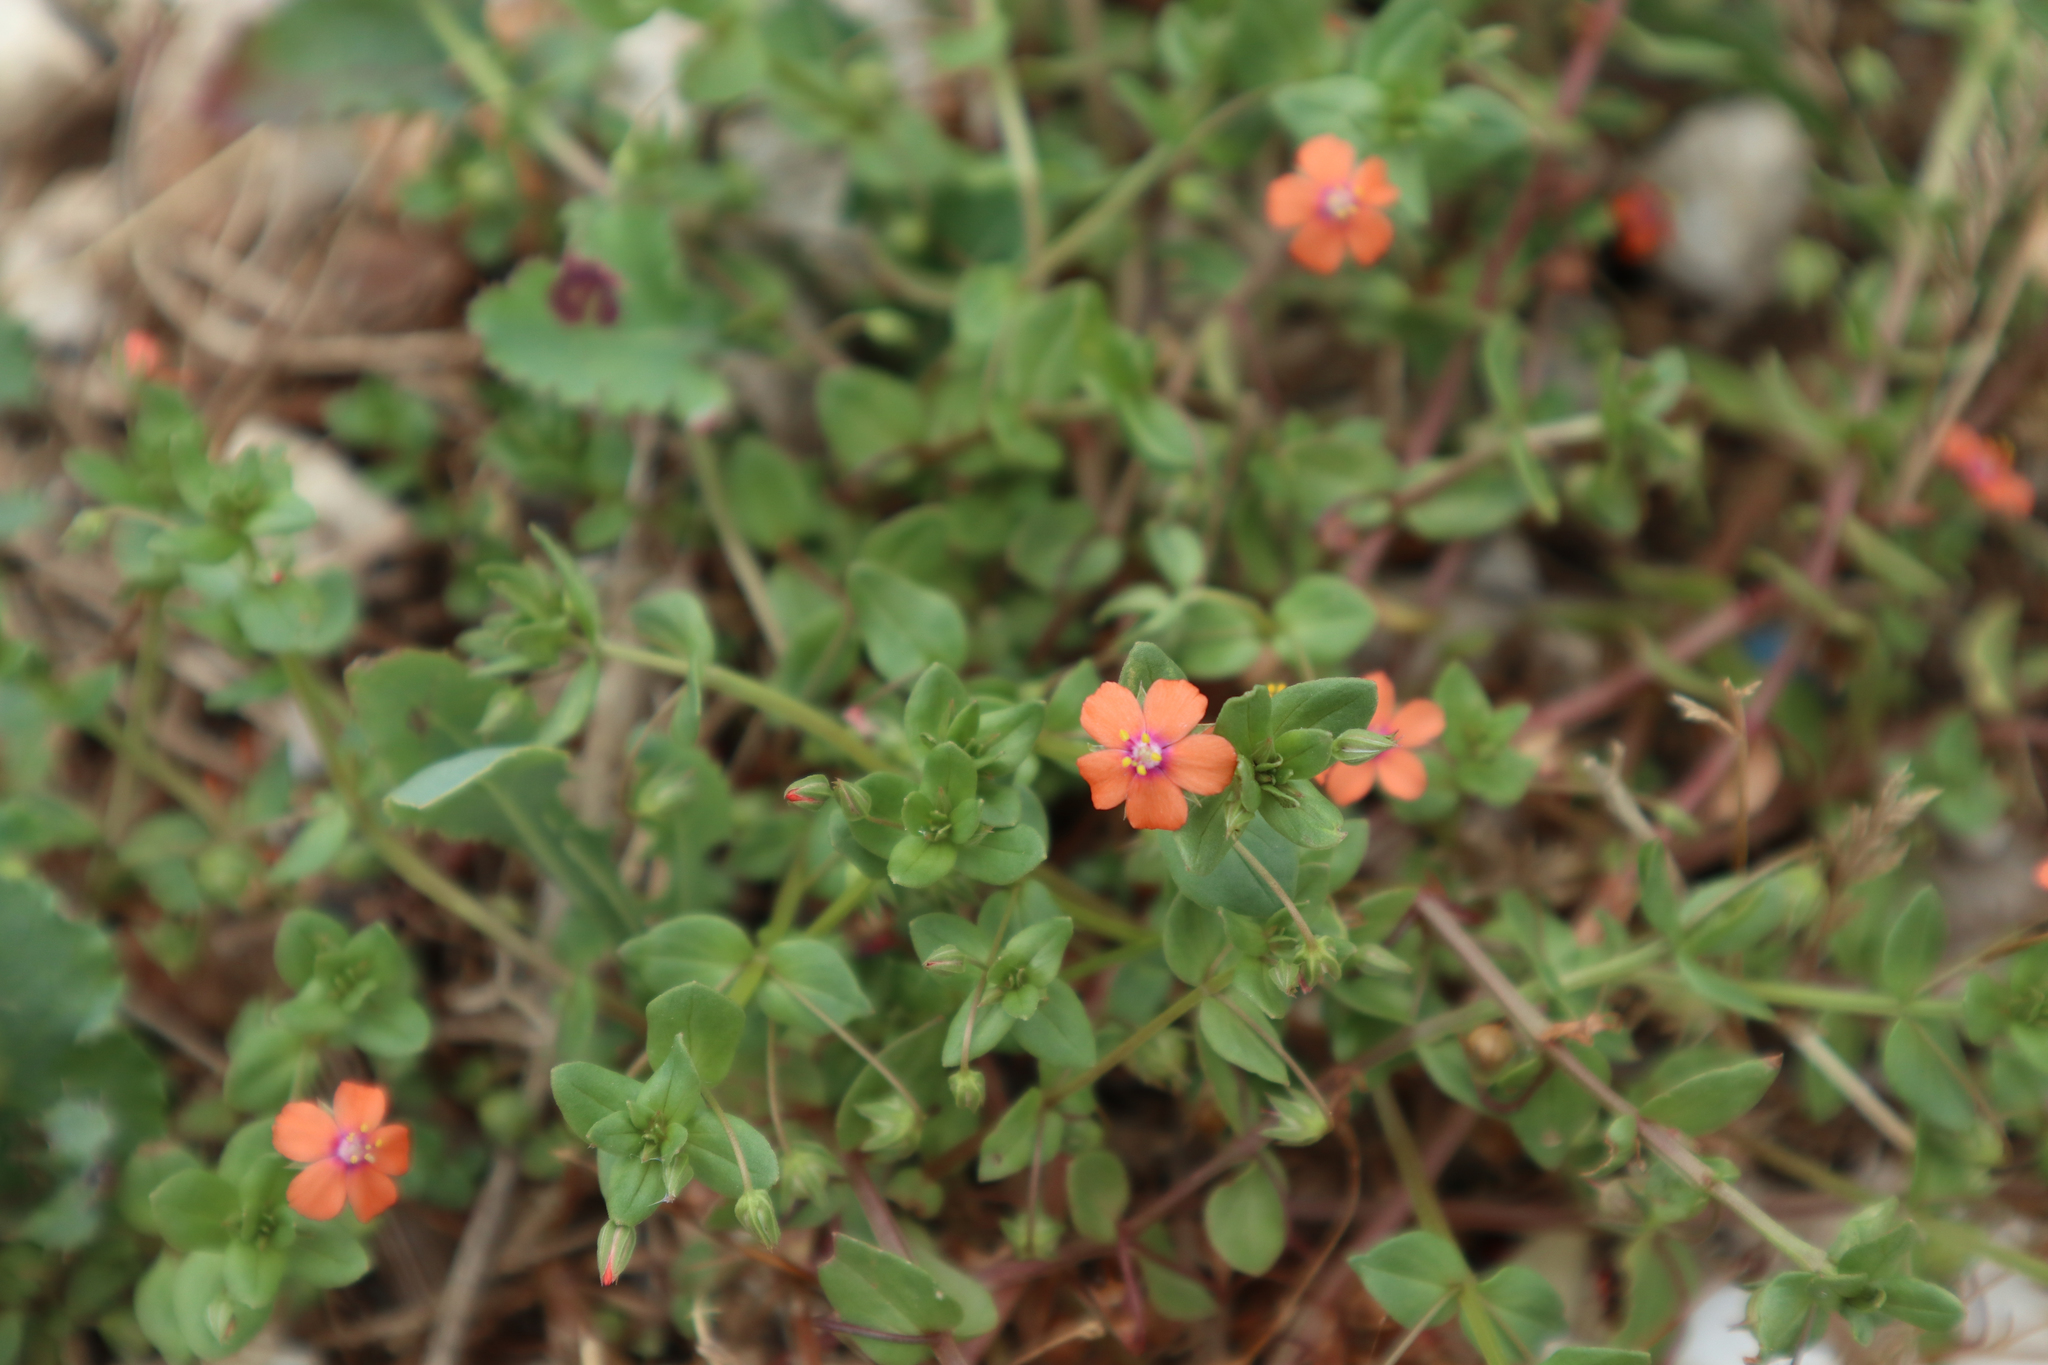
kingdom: Plantae
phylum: Tracheophyta
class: Magnoliopsida
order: Ericales
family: Primulaceae
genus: Lysimachia
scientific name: Lysimachia arvensis
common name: Scarlet pimpernel
